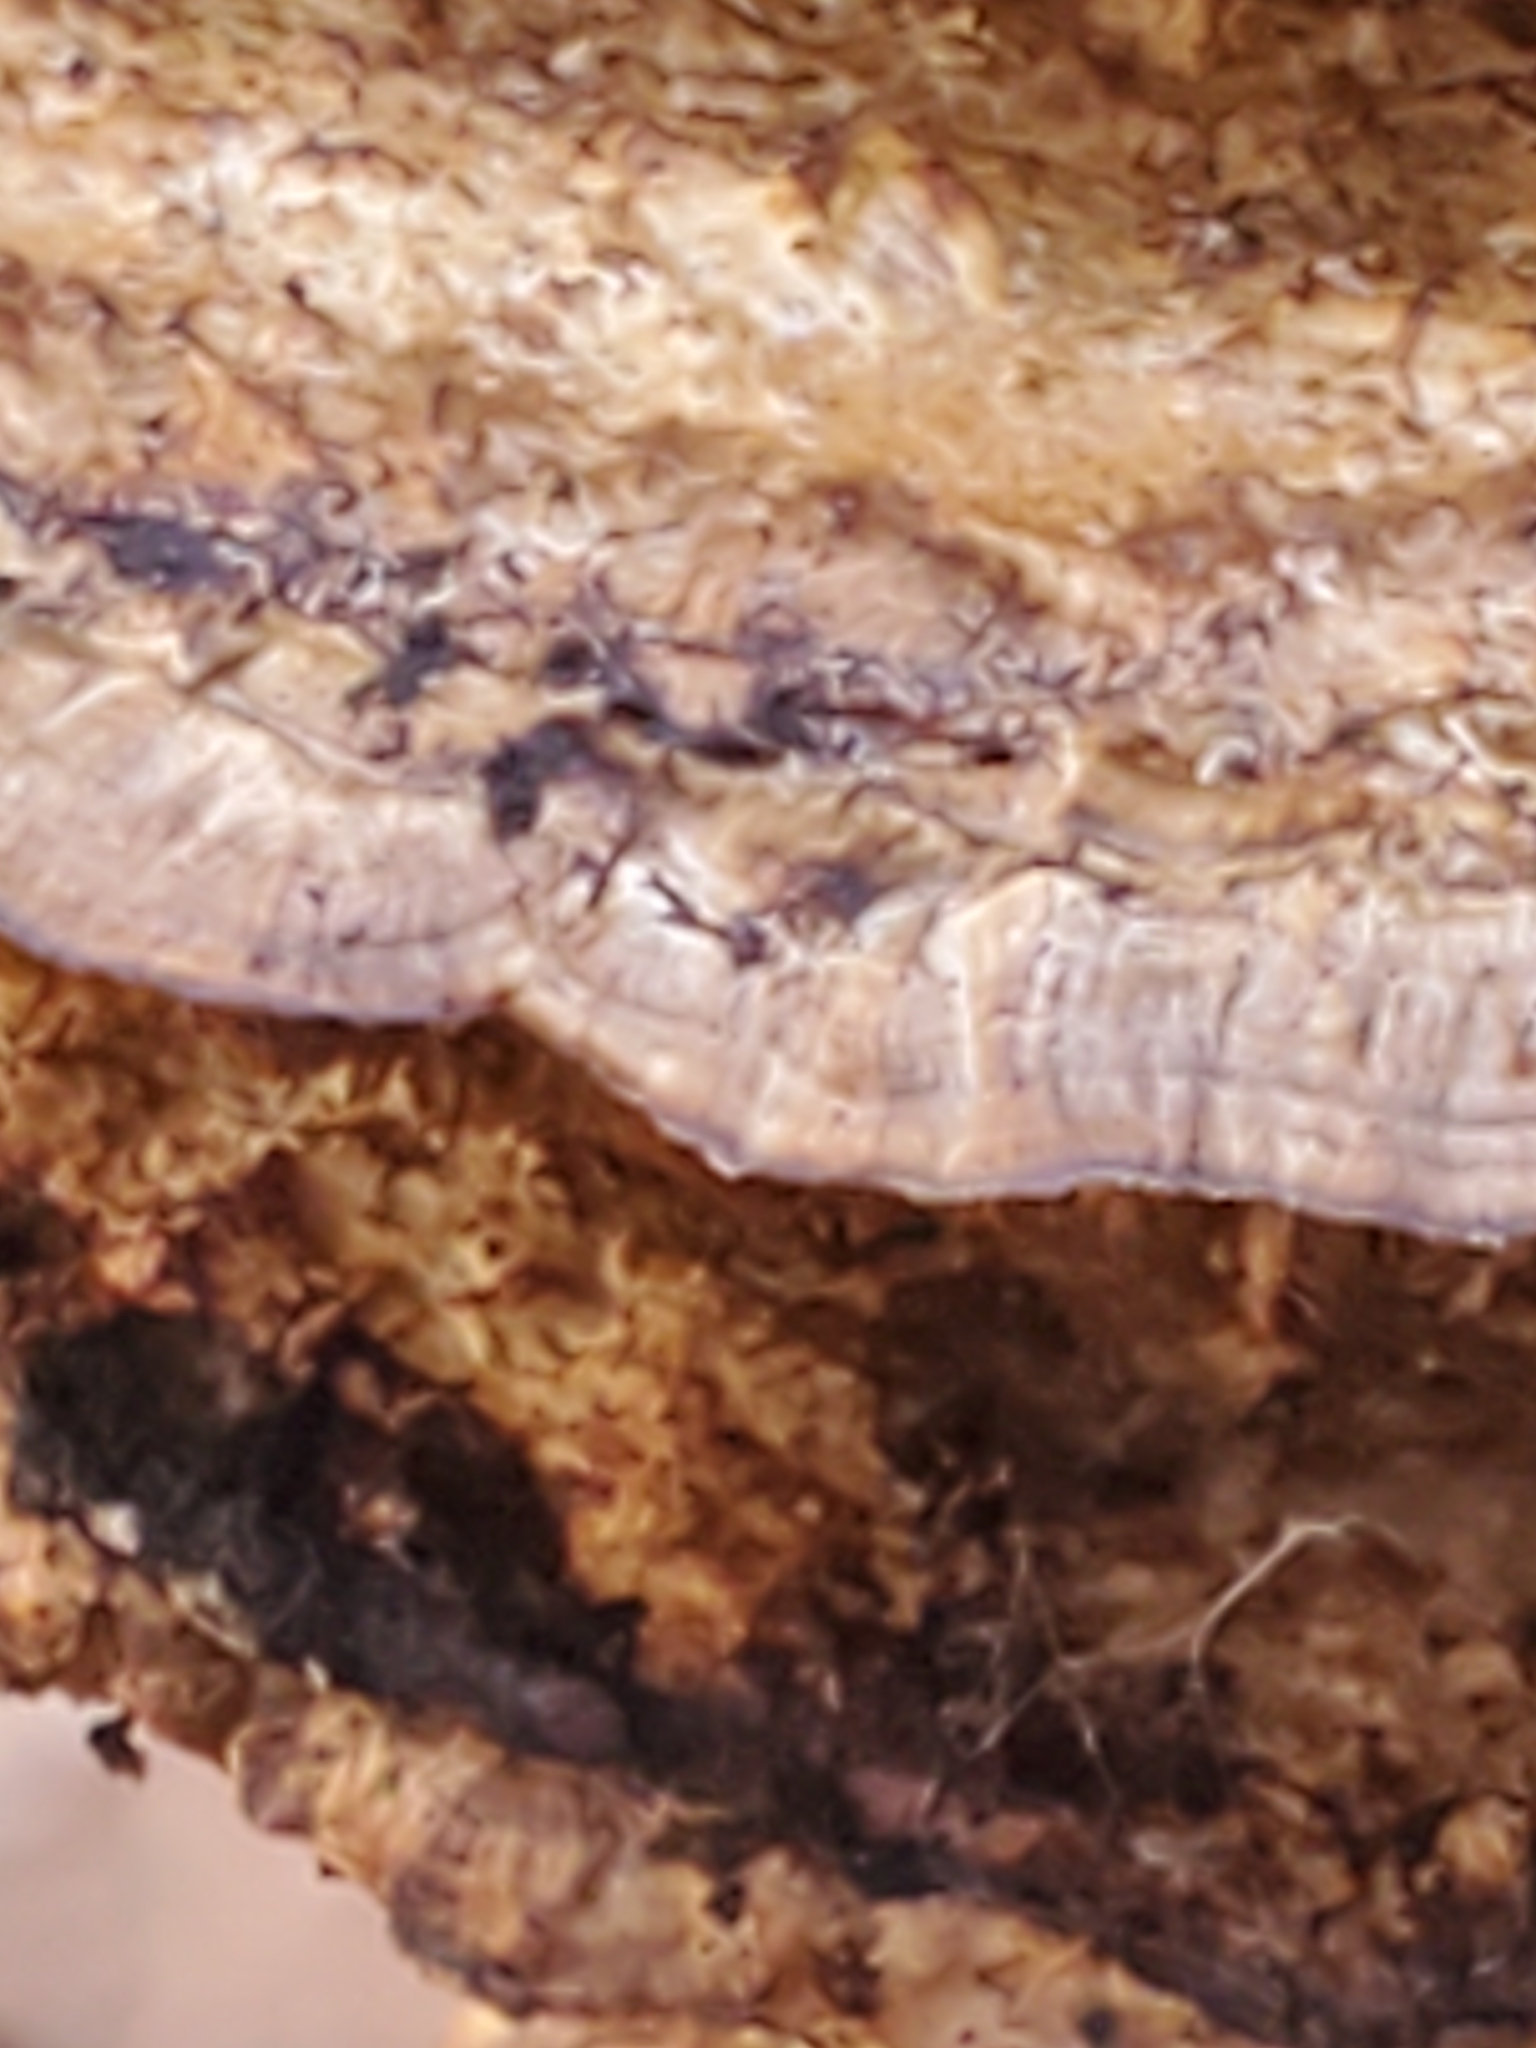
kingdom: Fungi
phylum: Basidiomycota
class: Agaricomycetes
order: Polyporales
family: Fomitopsidaceae
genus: Fomitopsis
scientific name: Fomitopsis
